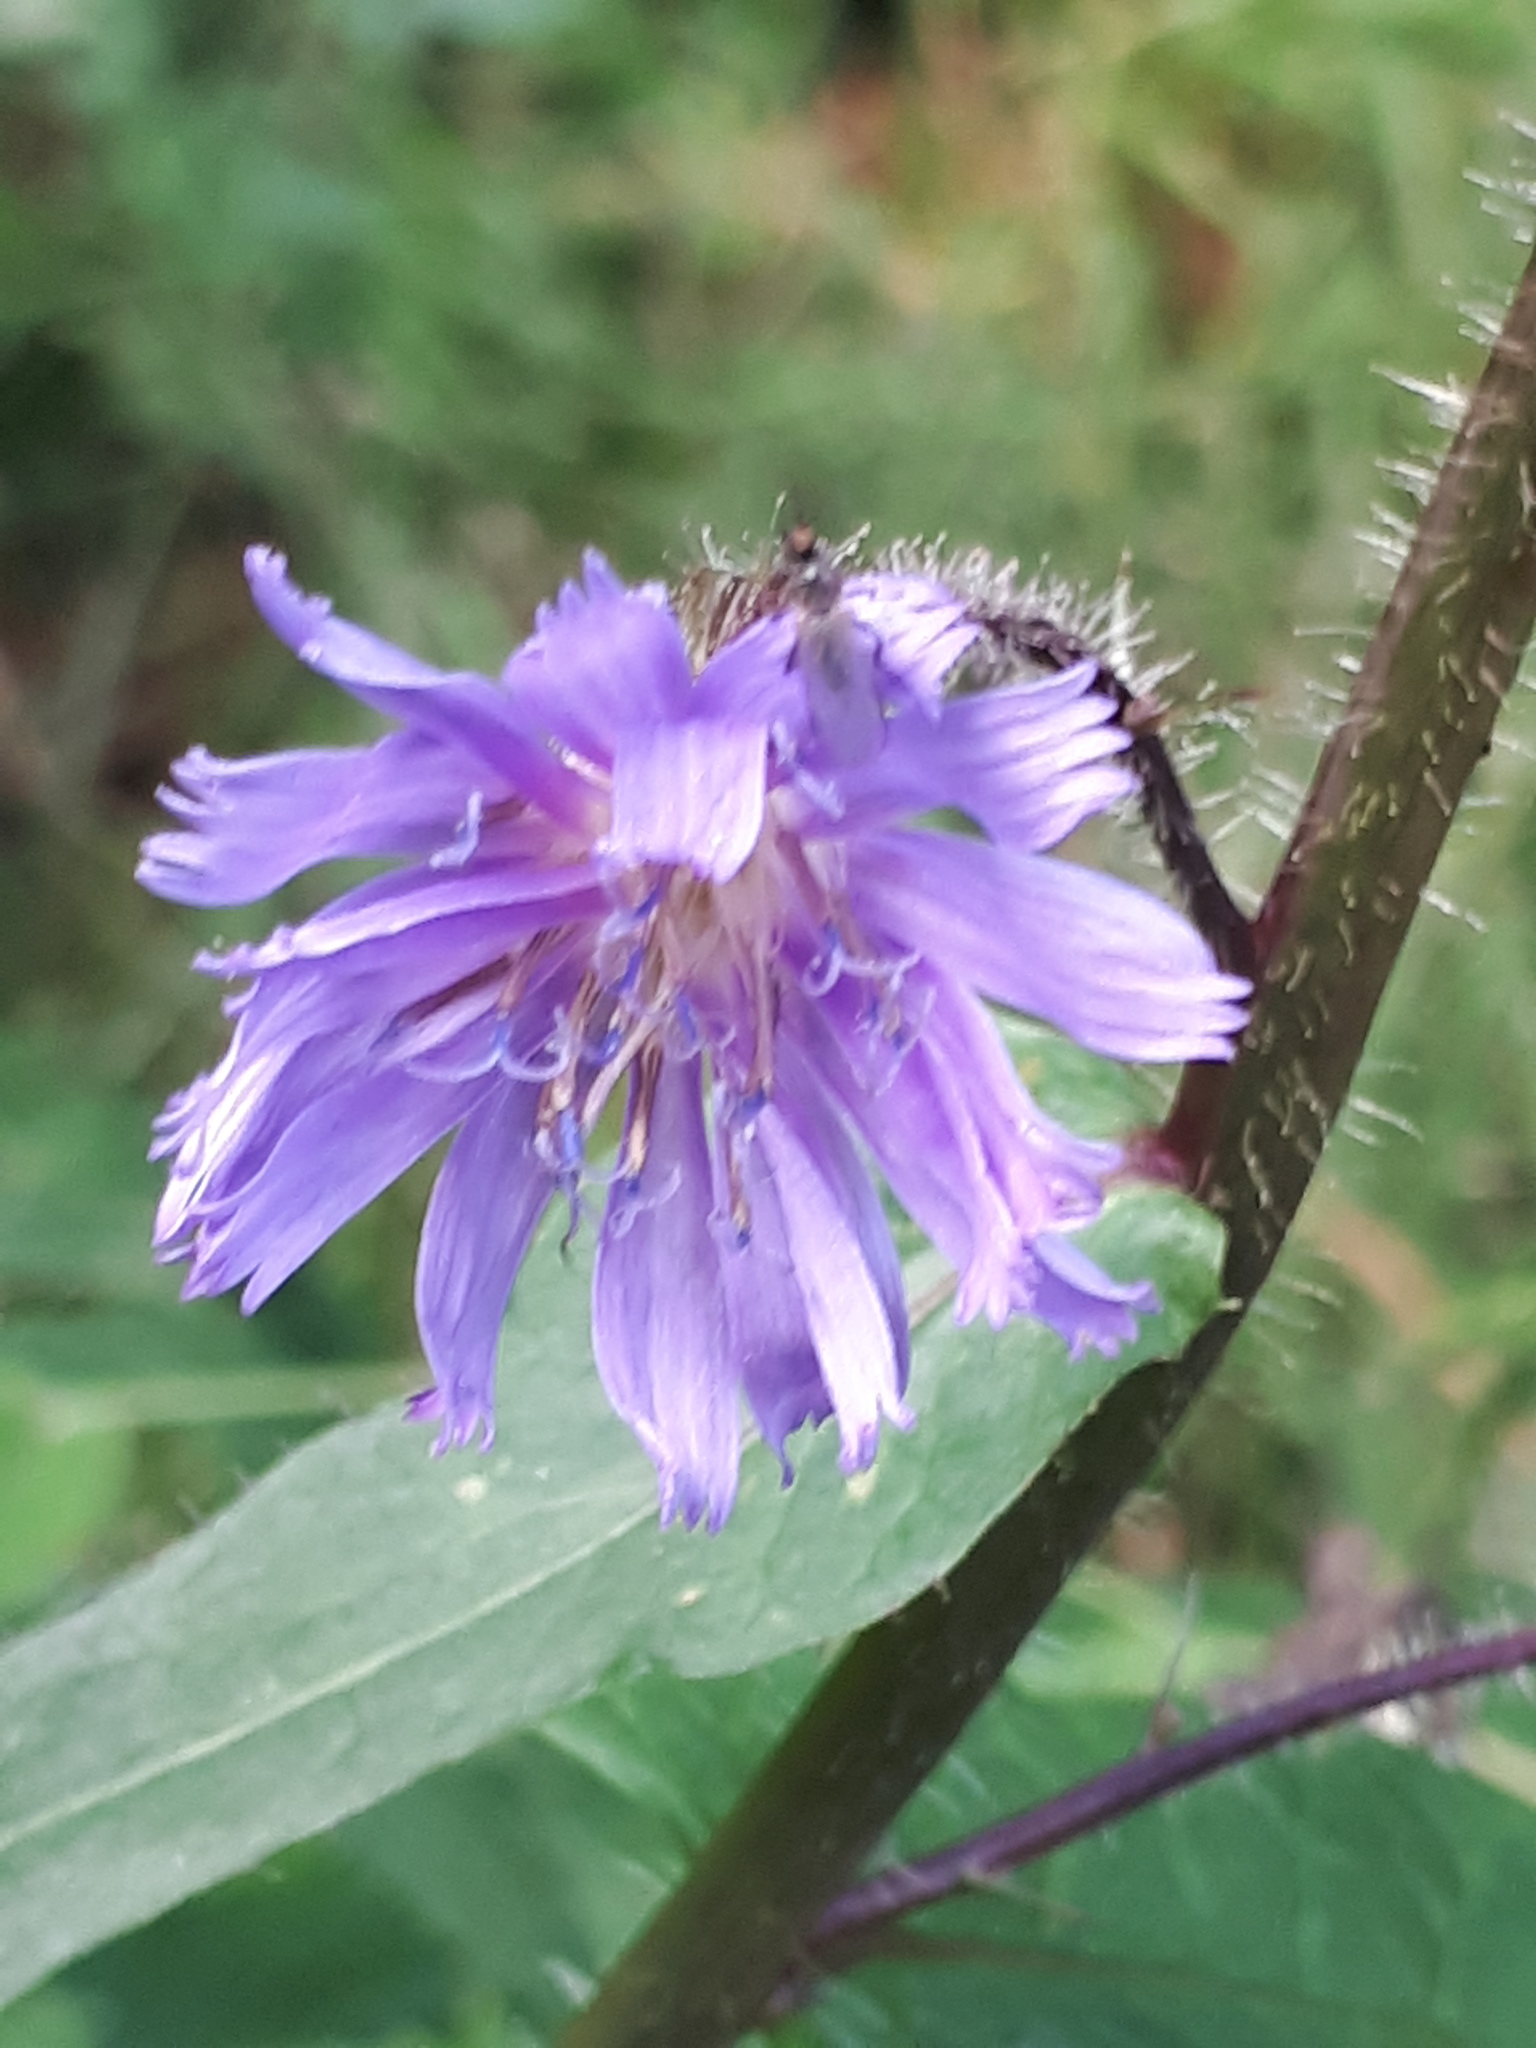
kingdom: Plantae
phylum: Tracheophyta
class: Magnoliopsida
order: Asterales
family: Asteraceae
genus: Cicerbita
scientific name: Cicerbita alpina
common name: Alpine blue-sow-thistle
